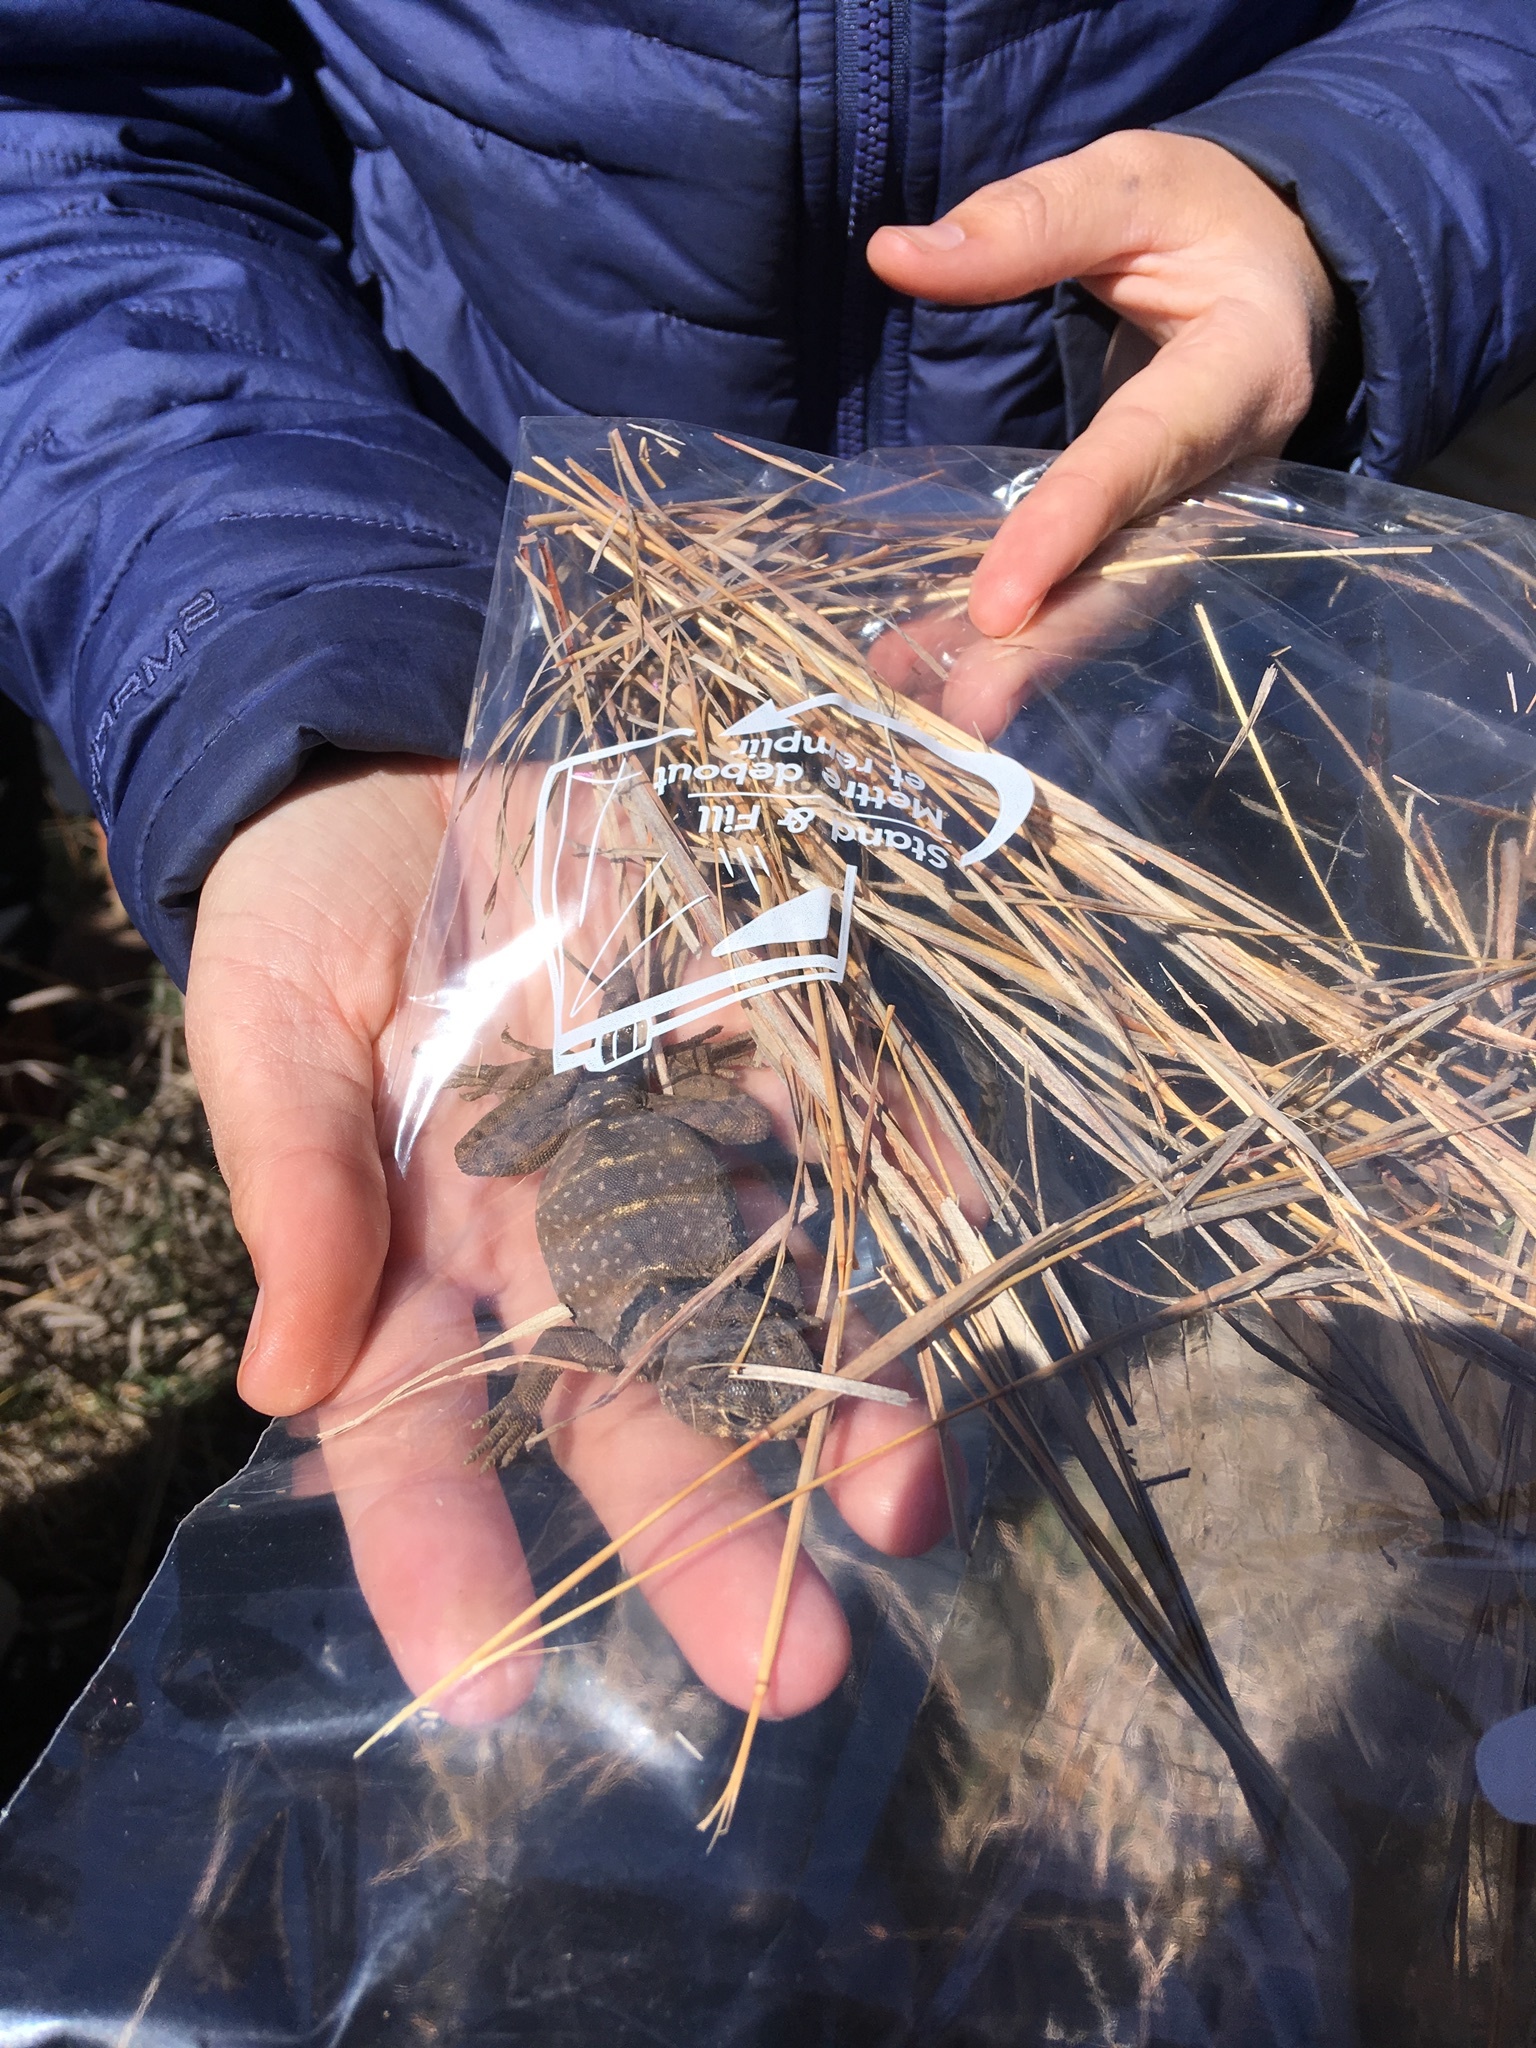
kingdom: Animalia
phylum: Chordata
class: Squamata
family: Crotaphytidae
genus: Crotaphytus
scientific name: Crotaphytus collaris
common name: Collared lizard
